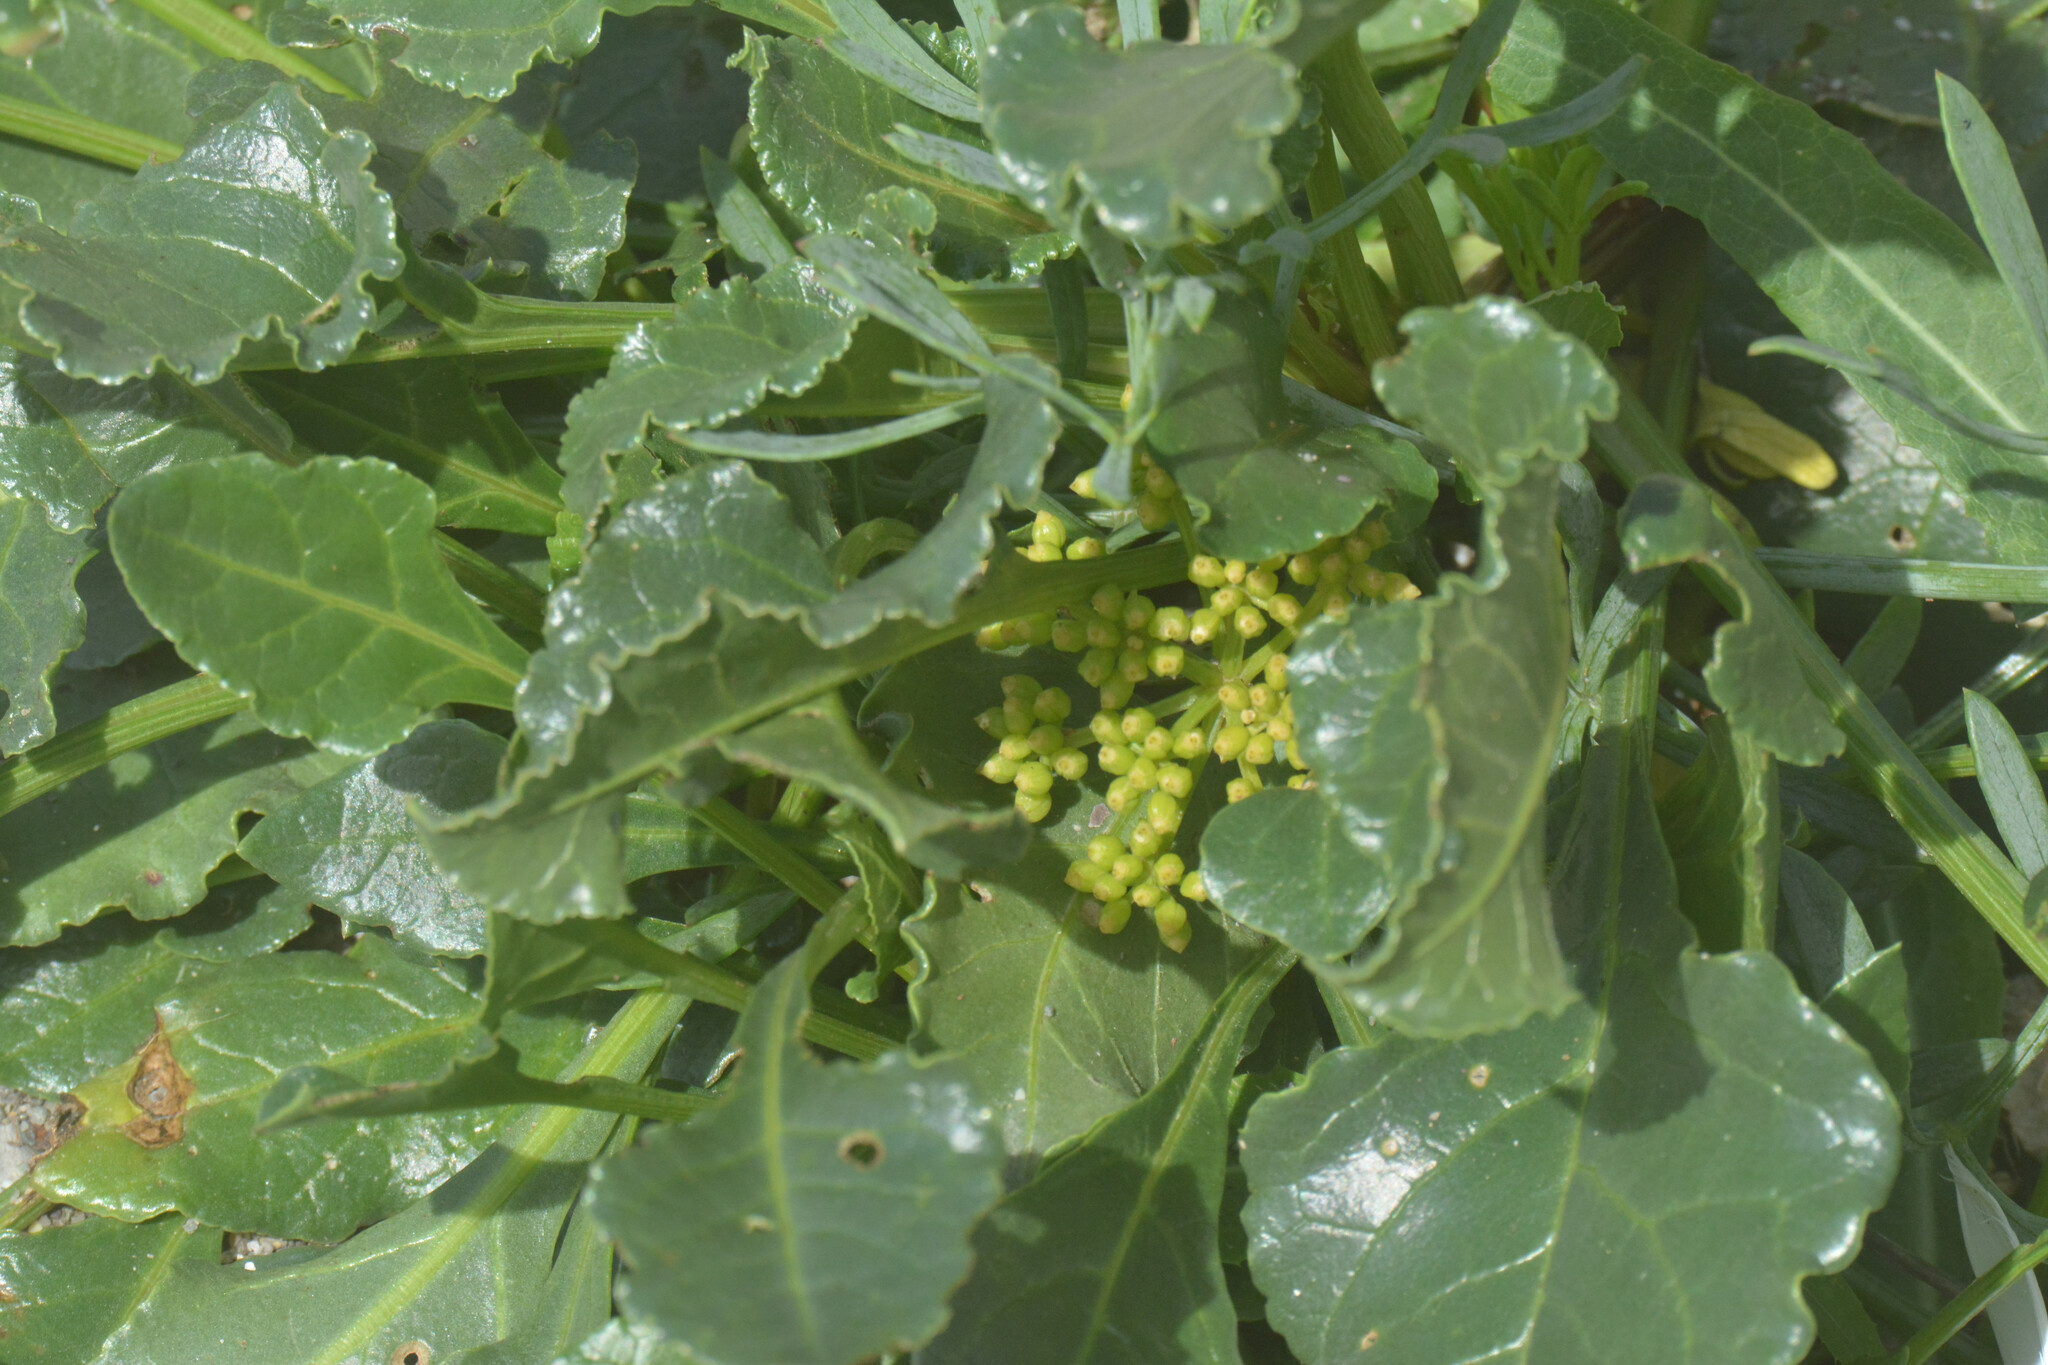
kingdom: Plantae
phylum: Tracheophyta
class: Magnoliopsida
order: Caryophyllales
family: Amaranthaceae
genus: Beta
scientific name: Beta vulgaris
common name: Beet
